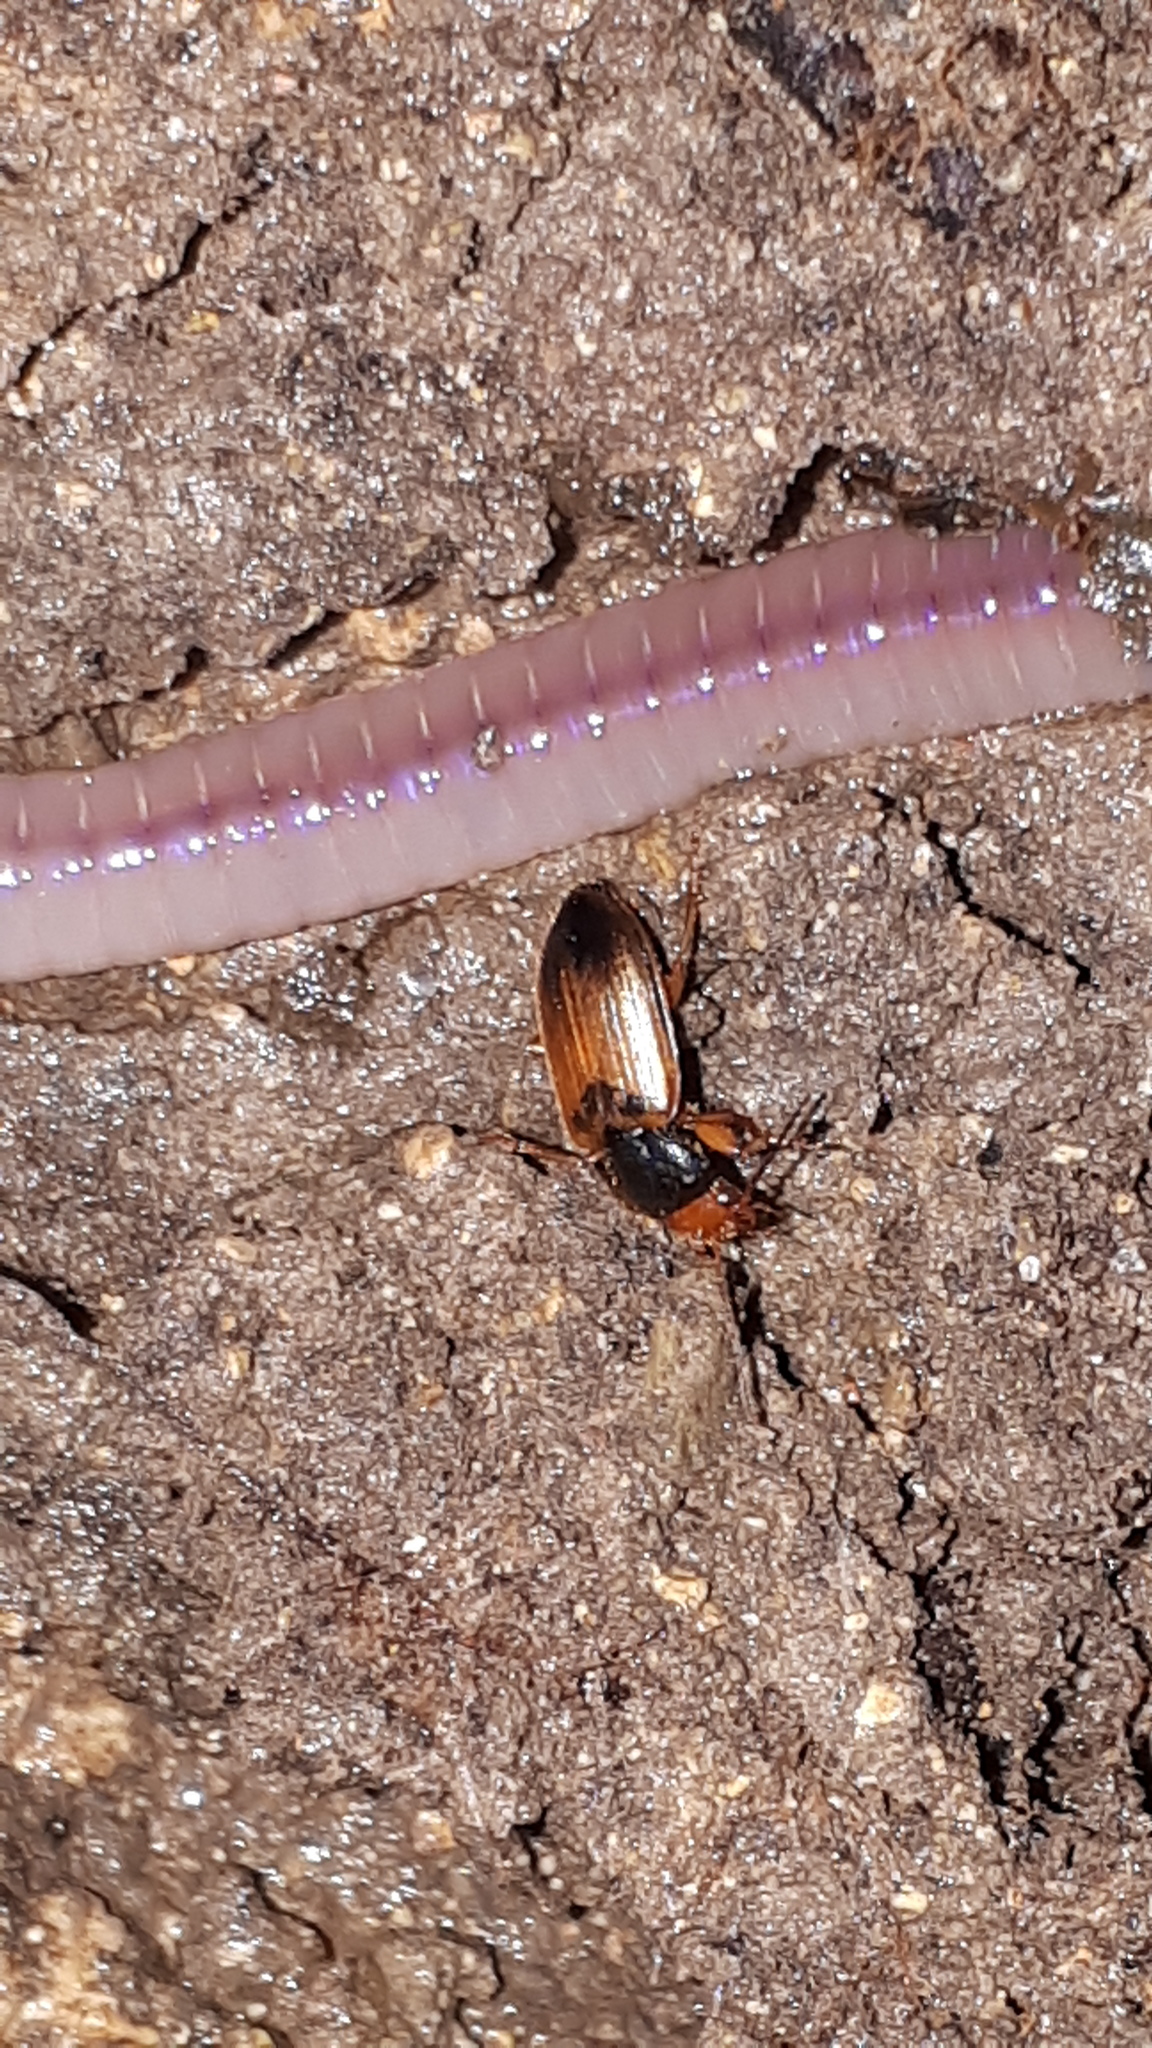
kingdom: Animalia
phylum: Arthropoda
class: Insecta
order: Coleoptera
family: Carabidae
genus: Diachromus
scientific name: Diachromus germanus
